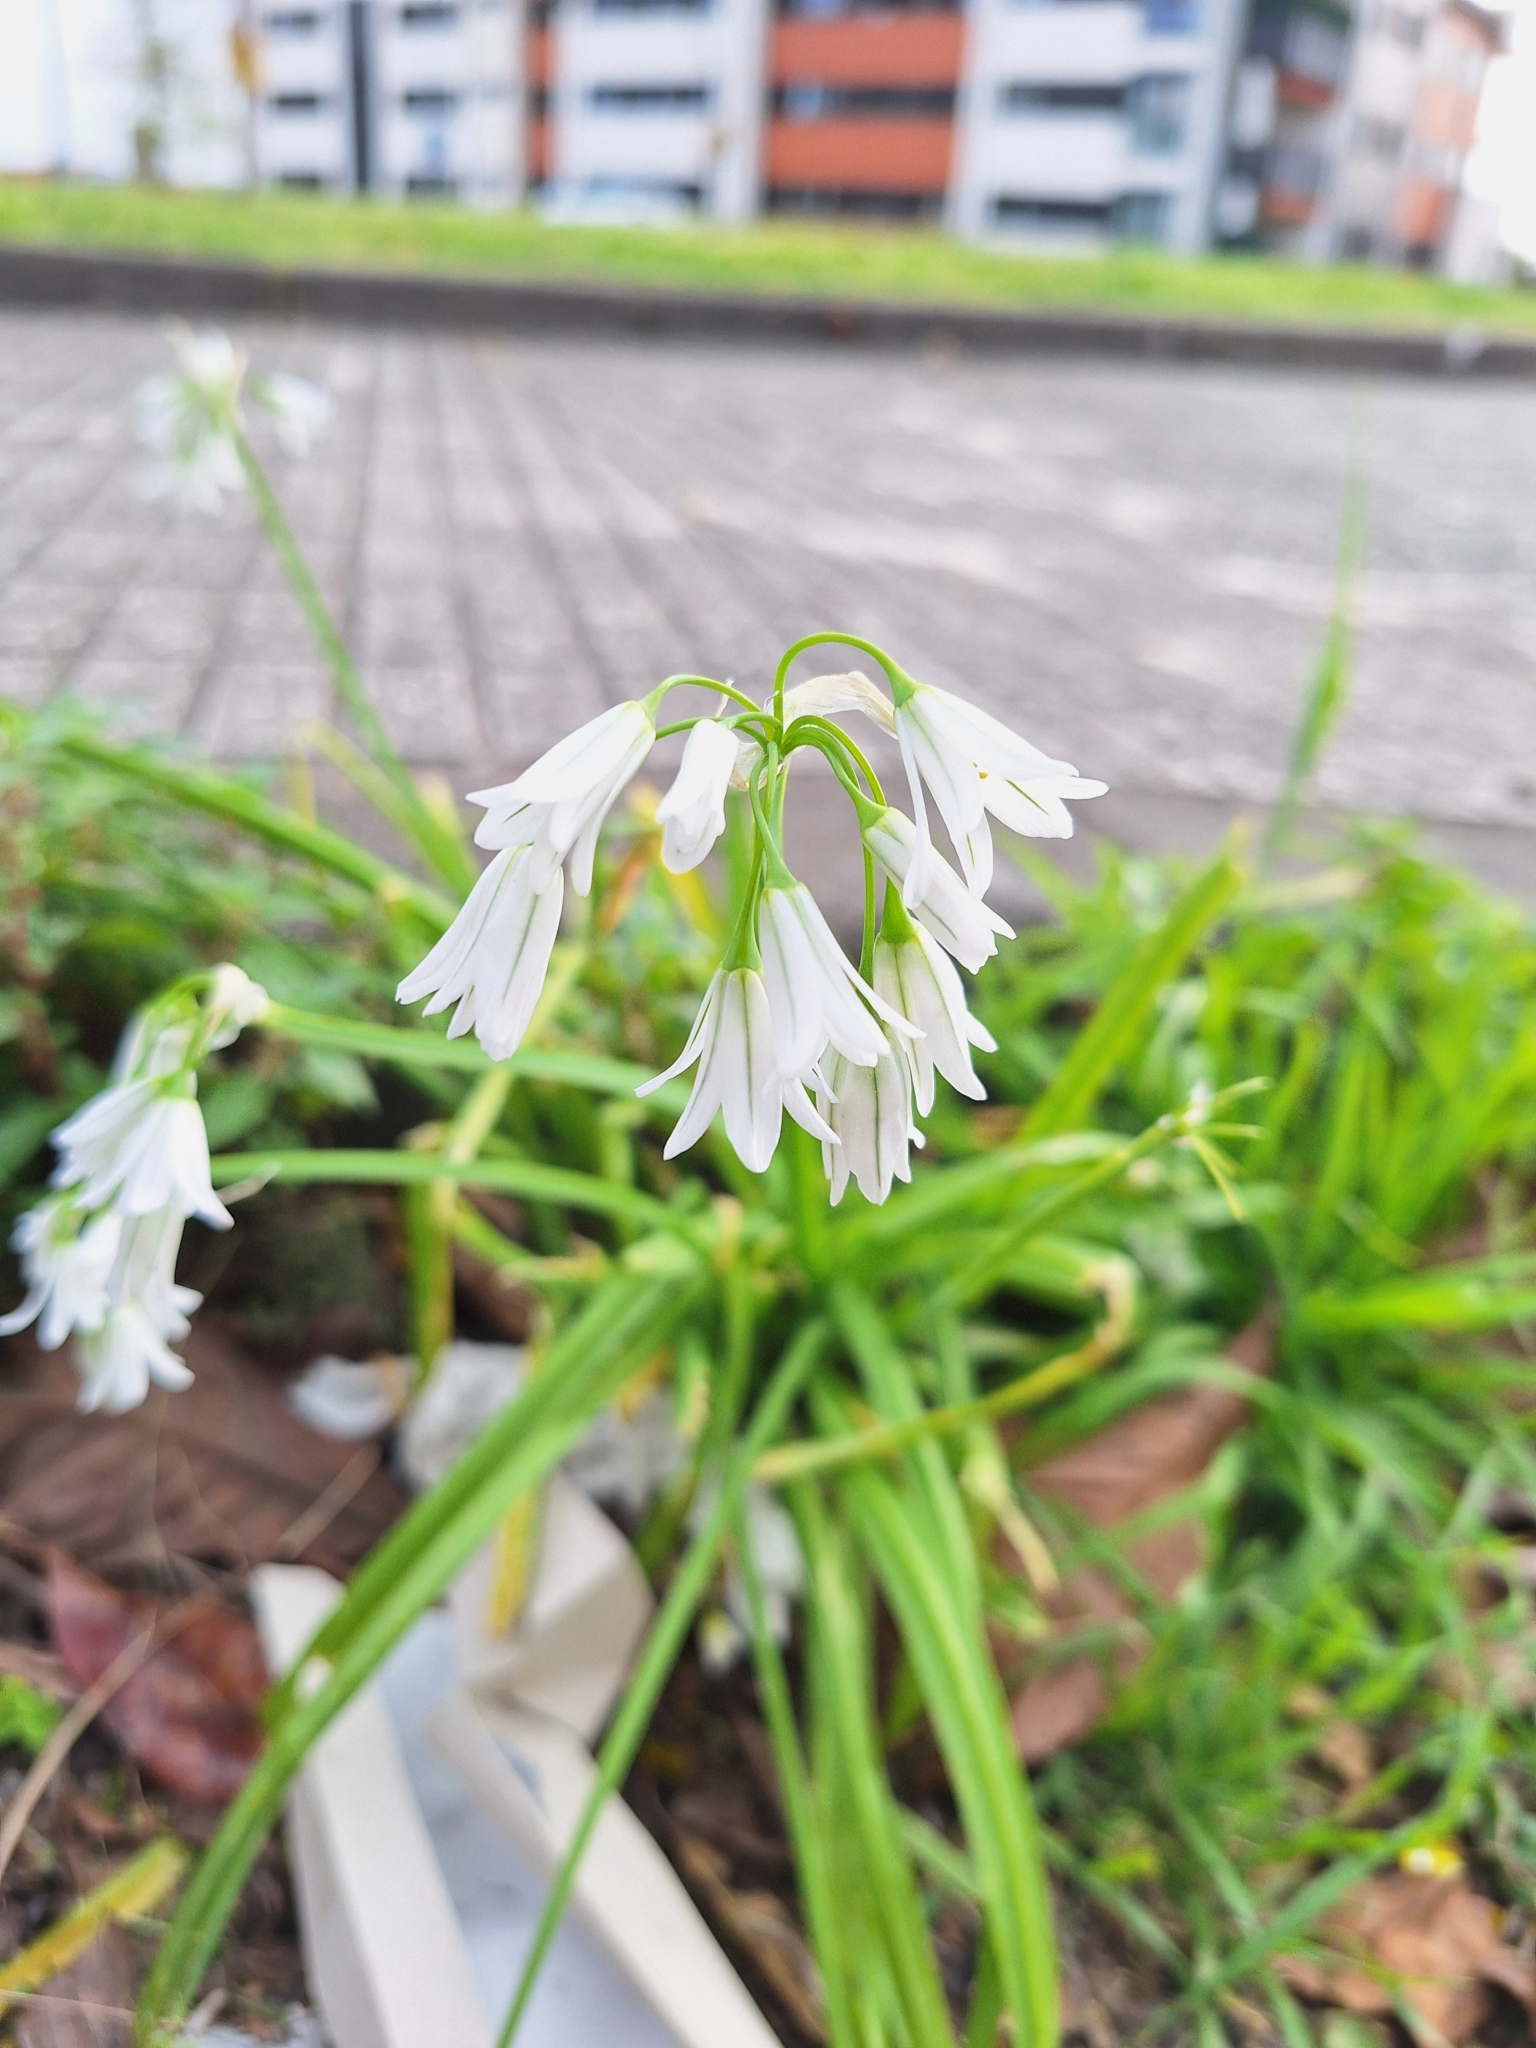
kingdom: Plantae
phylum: Tracheophyta
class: Liliopsida
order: Asparagales
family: Amaryllidaceae
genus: Allium
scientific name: Allium triquetrum
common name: Three-cornered garlic
